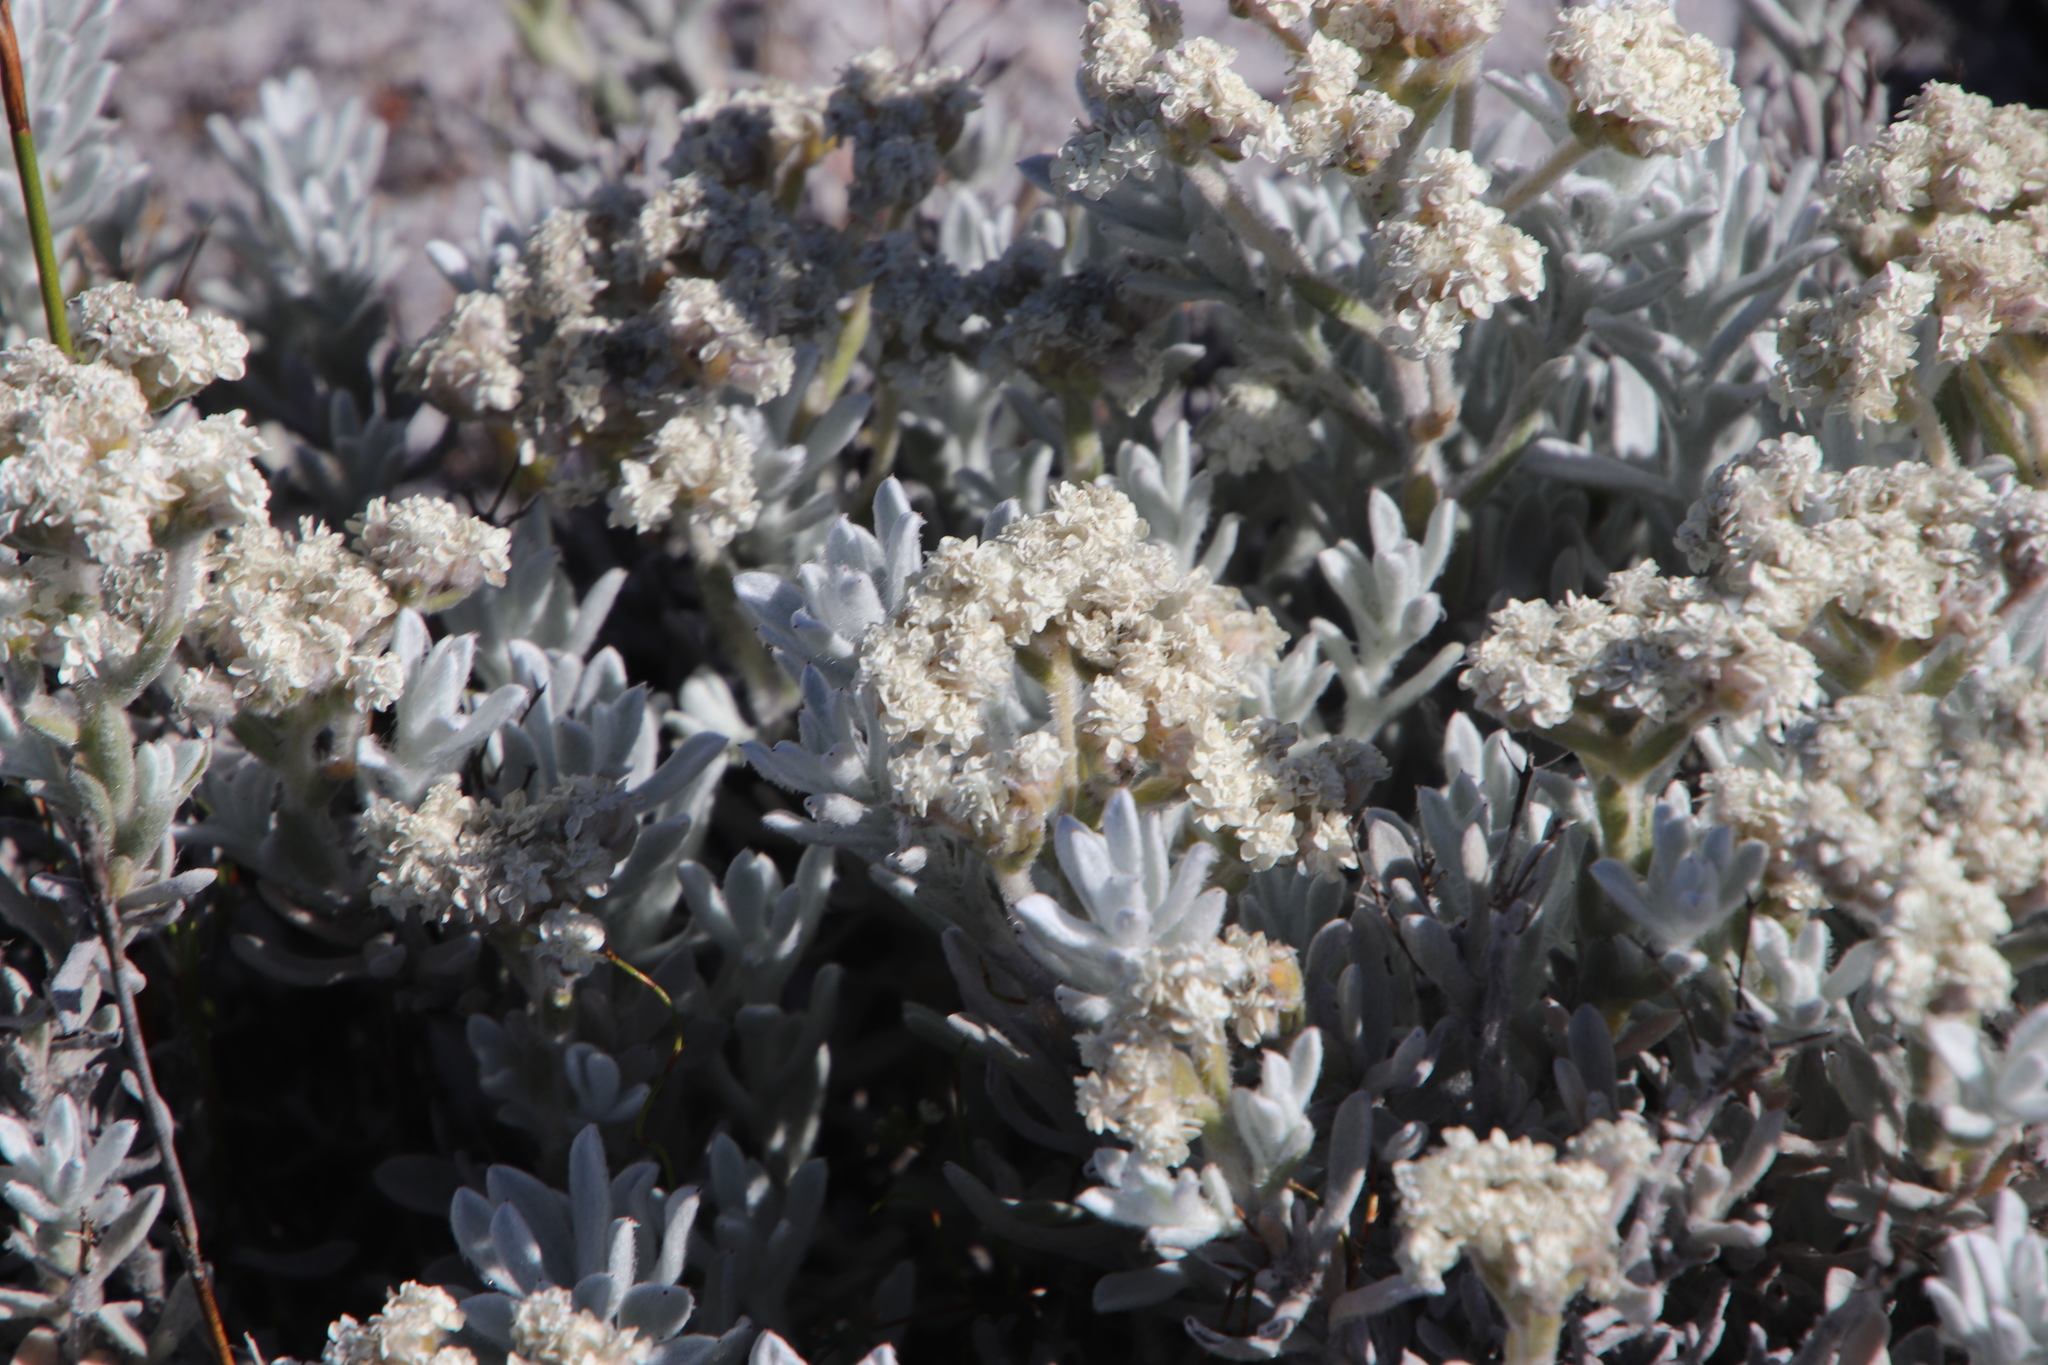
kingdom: Plantae
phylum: Tracheophyta
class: Magnoliopsida
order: Asterales
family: Asteraceae
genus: Petalacte
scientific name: Petalacte coronata
